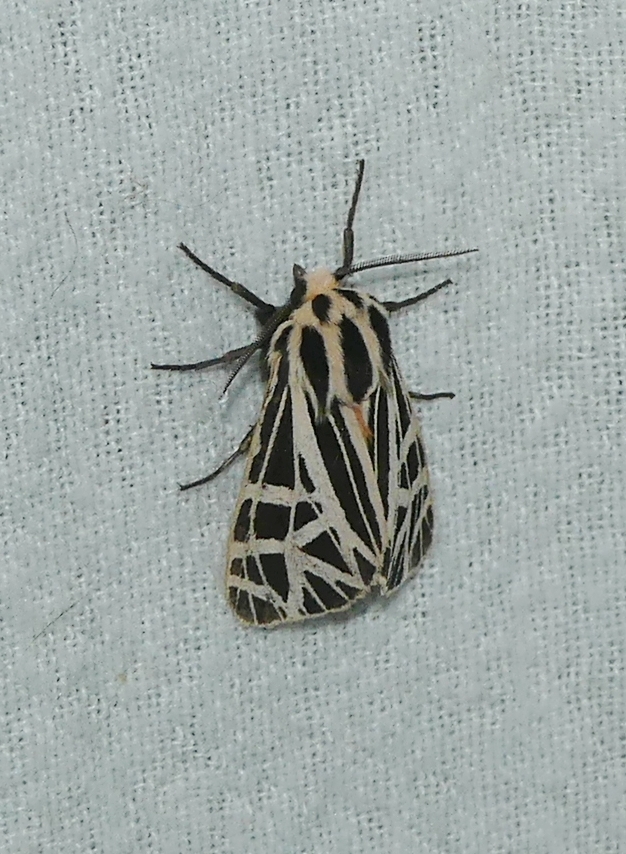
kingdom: Animalia
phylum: Arthropoda
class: Insecta
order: Lepidoptera
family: Erebidae
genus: Grammia
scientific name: Grammia parthenice
